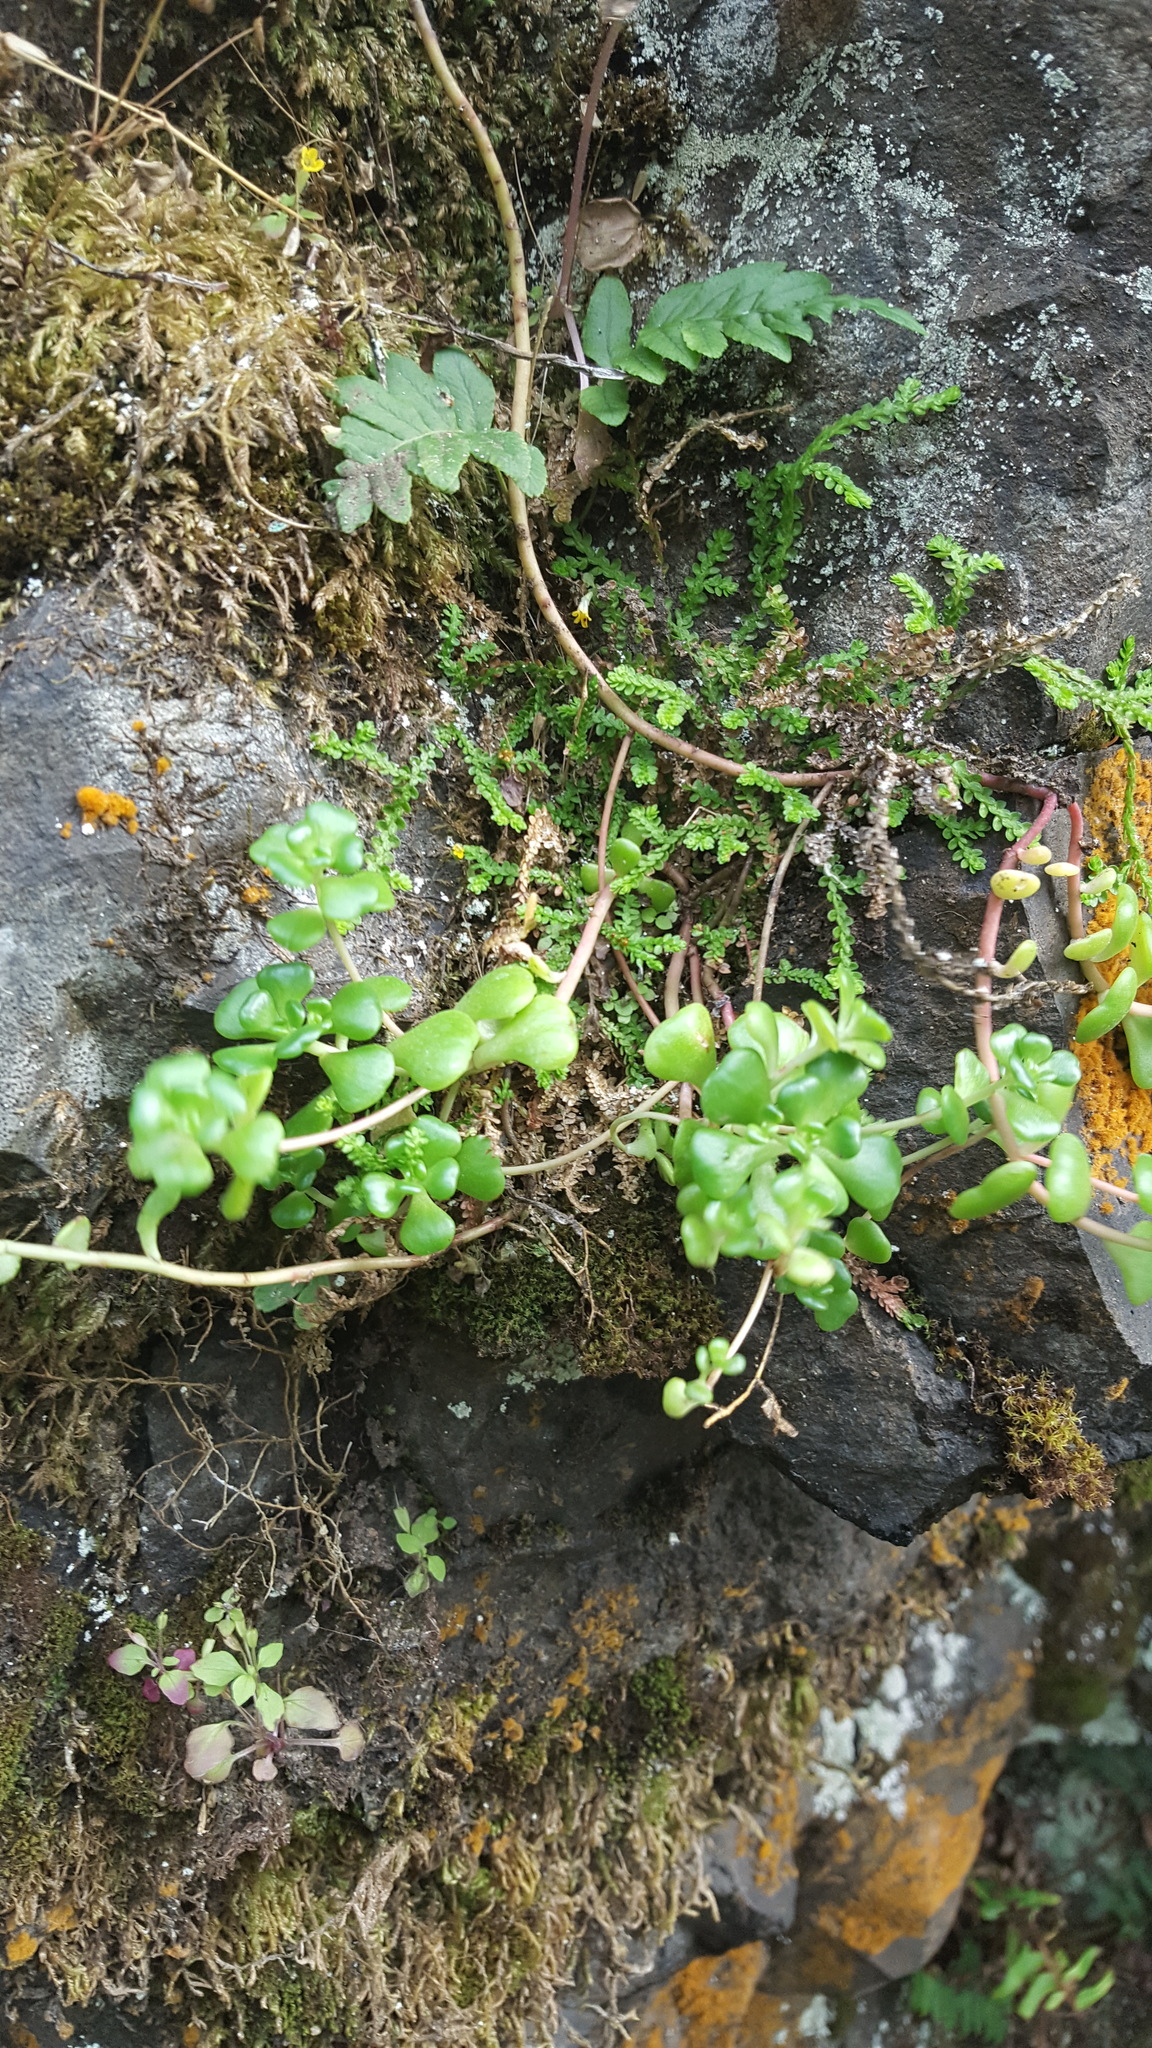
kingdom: Plantae
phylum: Tracheophyta
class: Magnoliopsida
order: Saxifragales
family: Crassulaceae
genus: Sedum
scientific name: Sedum oreganum
